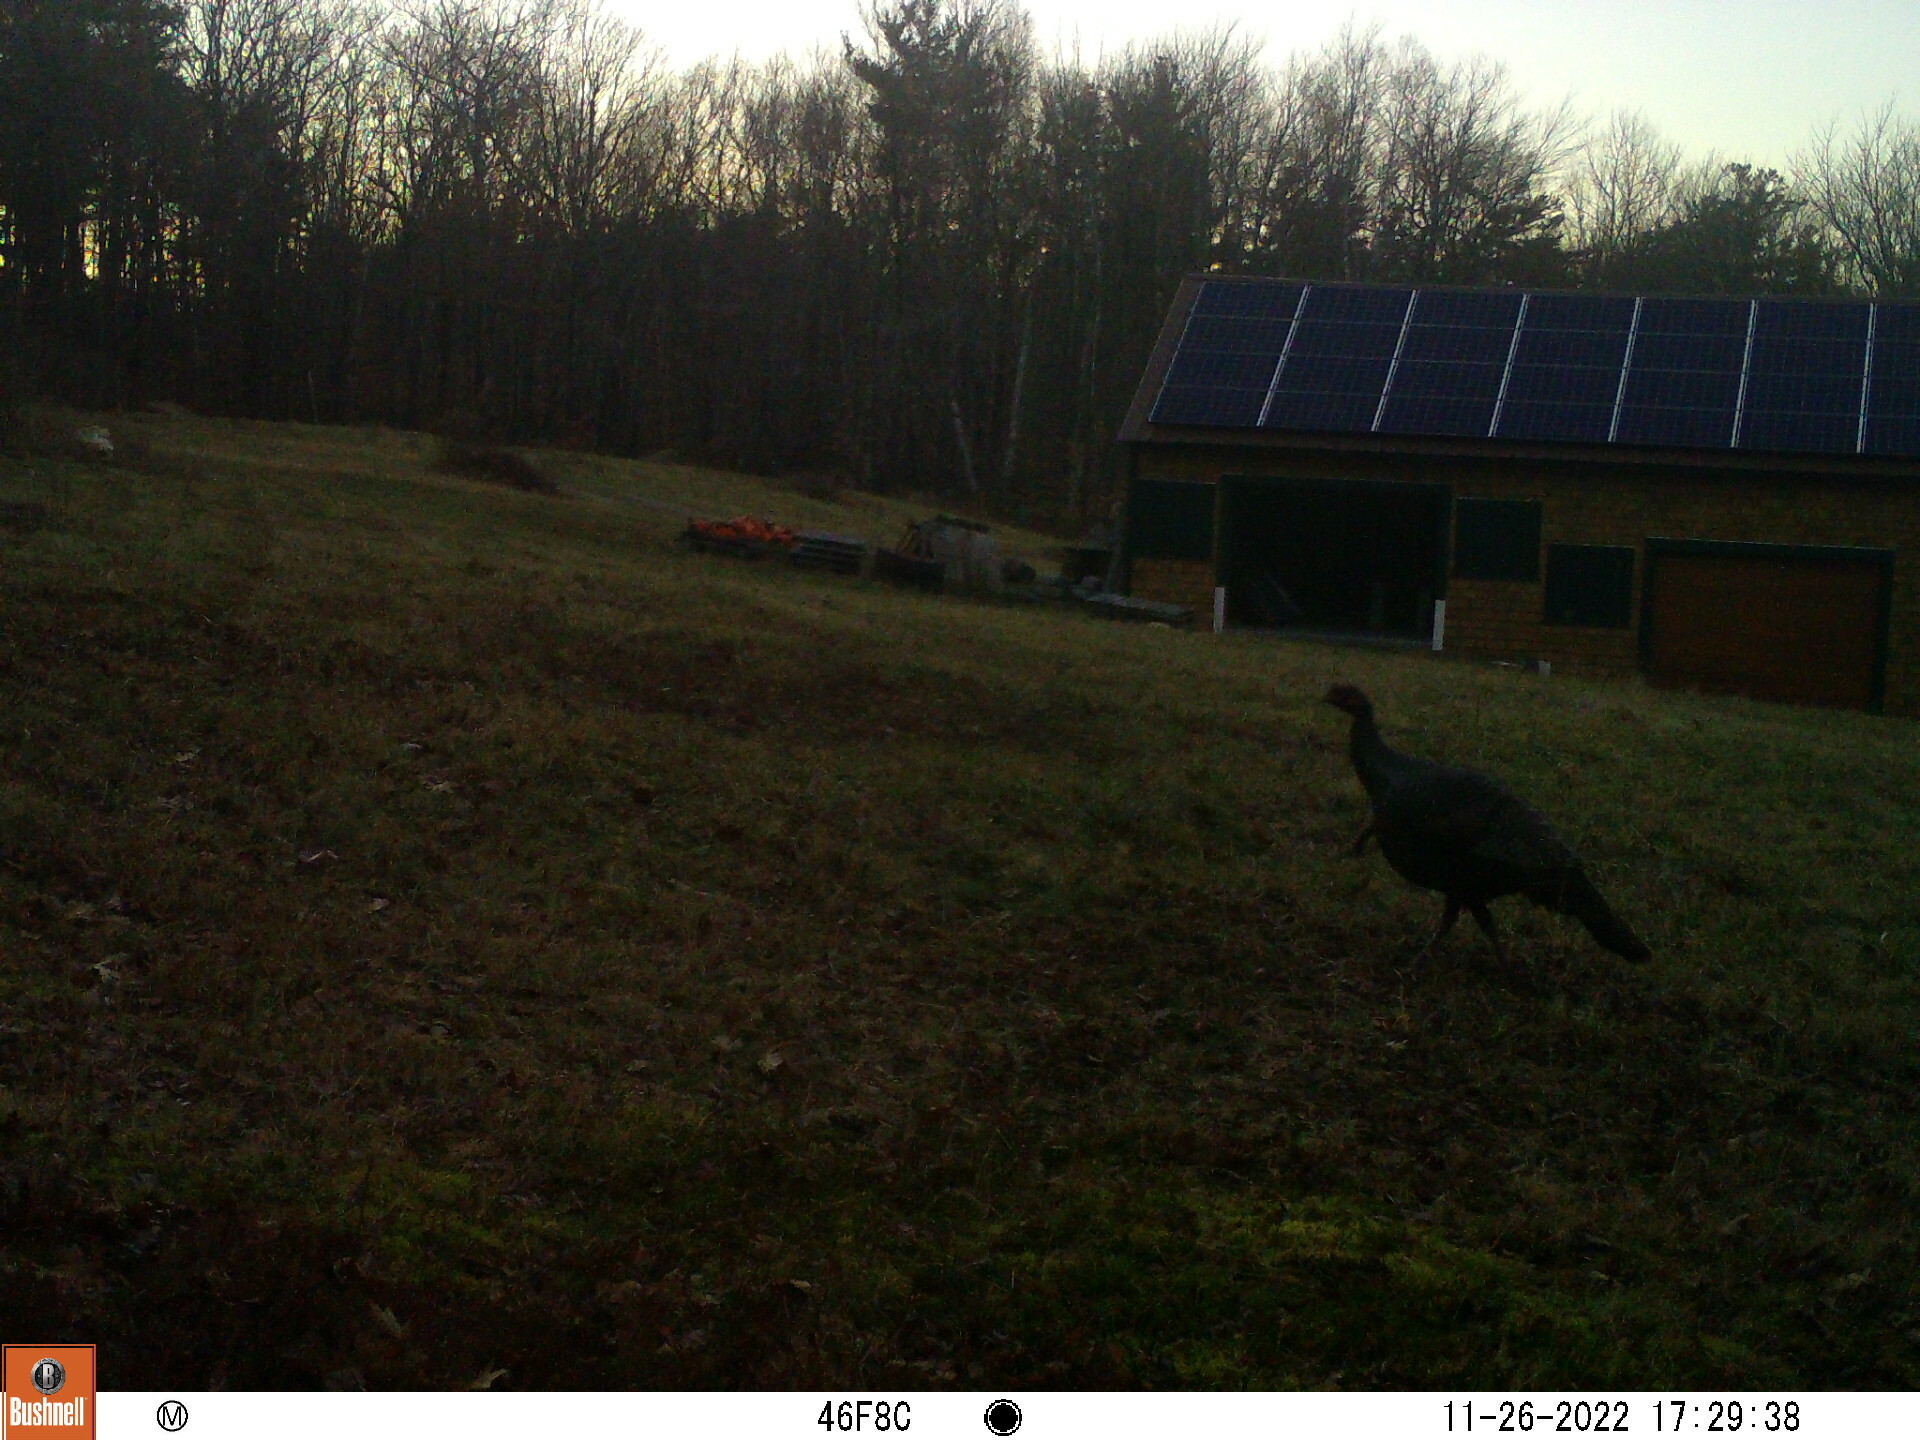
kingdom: Animalia
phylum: Chordata
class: Aves
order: Galliformes
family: Phasianidae
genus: Meleagris
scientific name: Meleagris gallopavo
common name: Wild turkey
